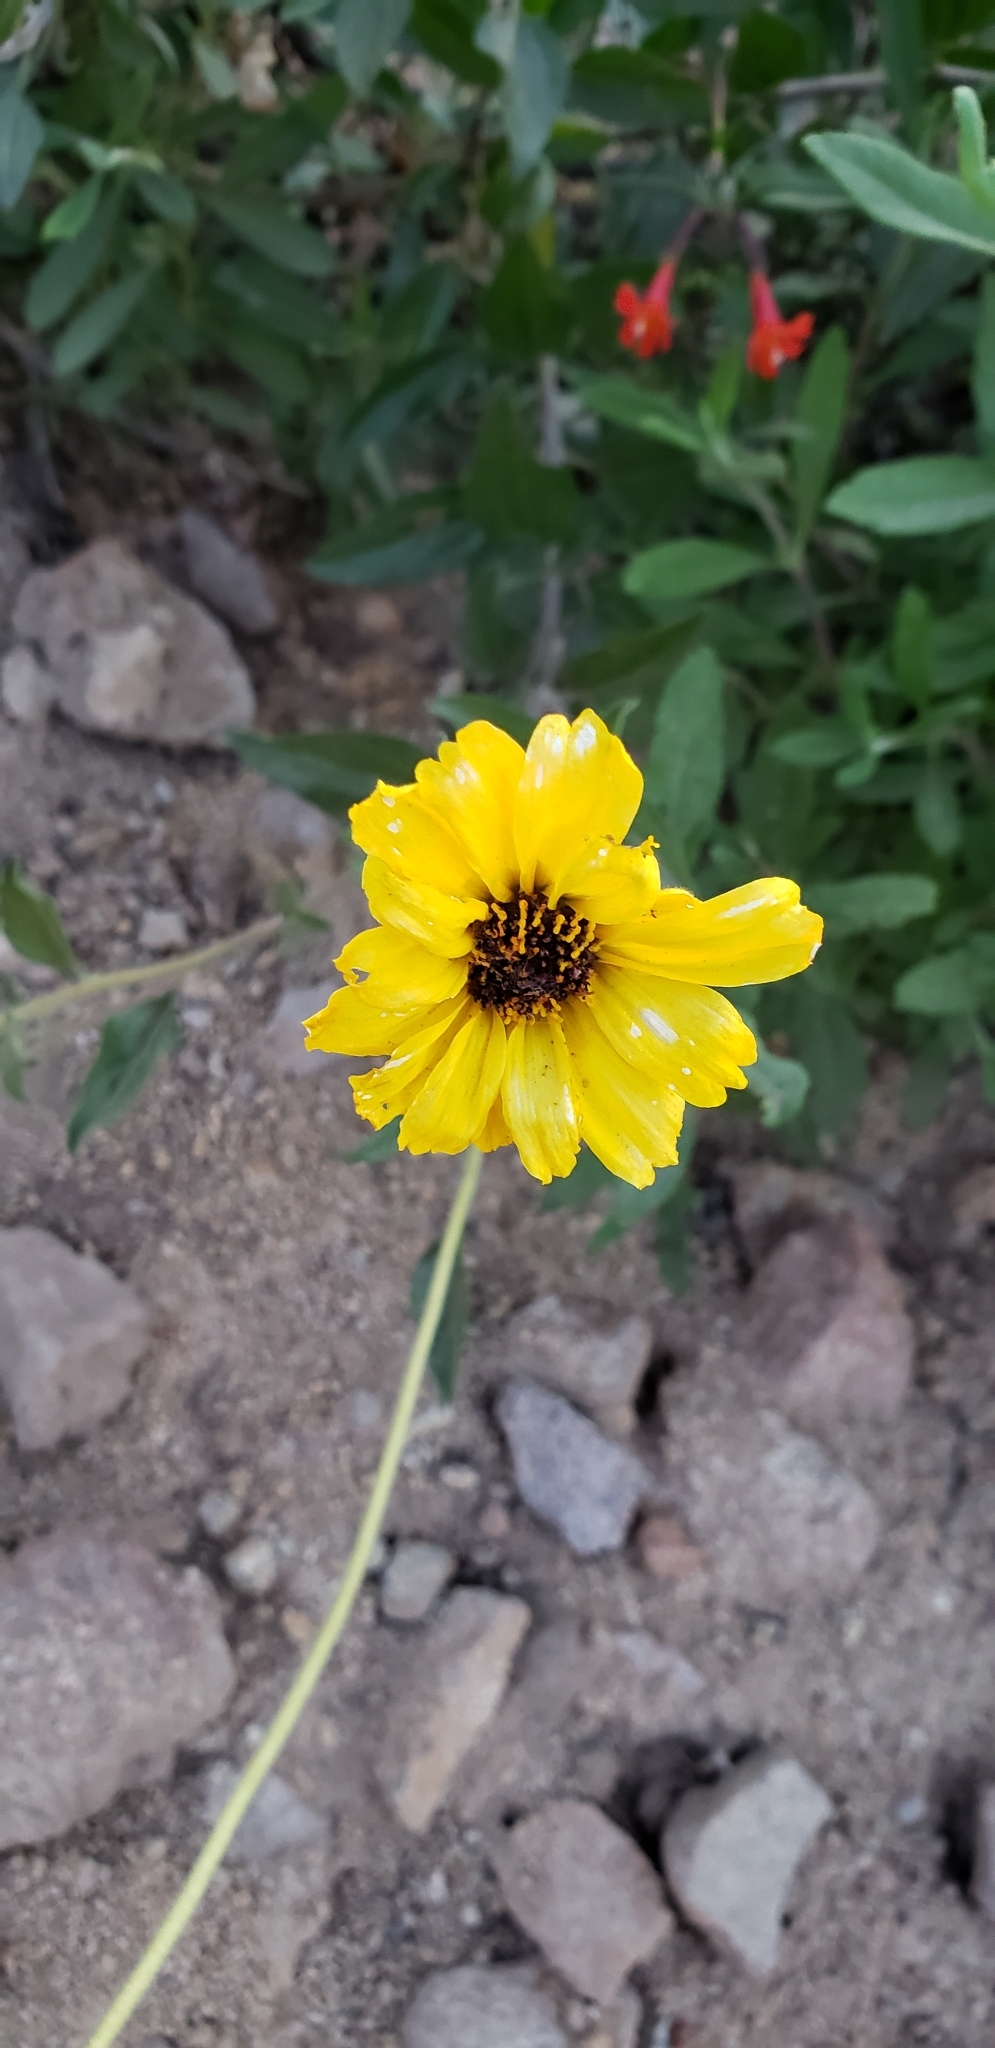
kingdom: Plantae
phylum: Tracheophyta
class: Magnoliopsida
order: Asterales
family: Asteraceae
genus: Encelia
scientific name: Encelia californica
